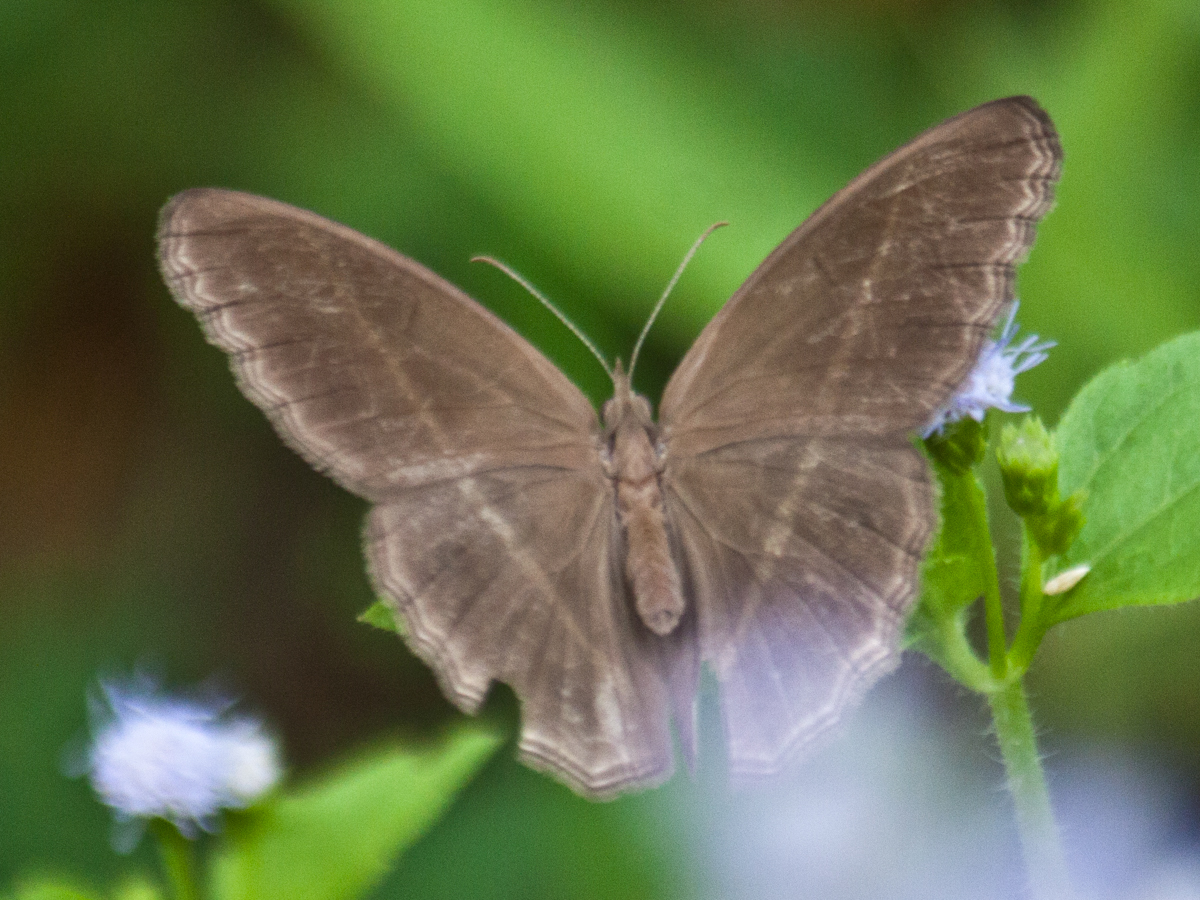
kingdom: Animalia
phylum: Arthropoda
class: Insecta
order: Lepidoptera
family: Nymphalidae
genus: Orsotriaena
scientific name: Orsotriaena medus
